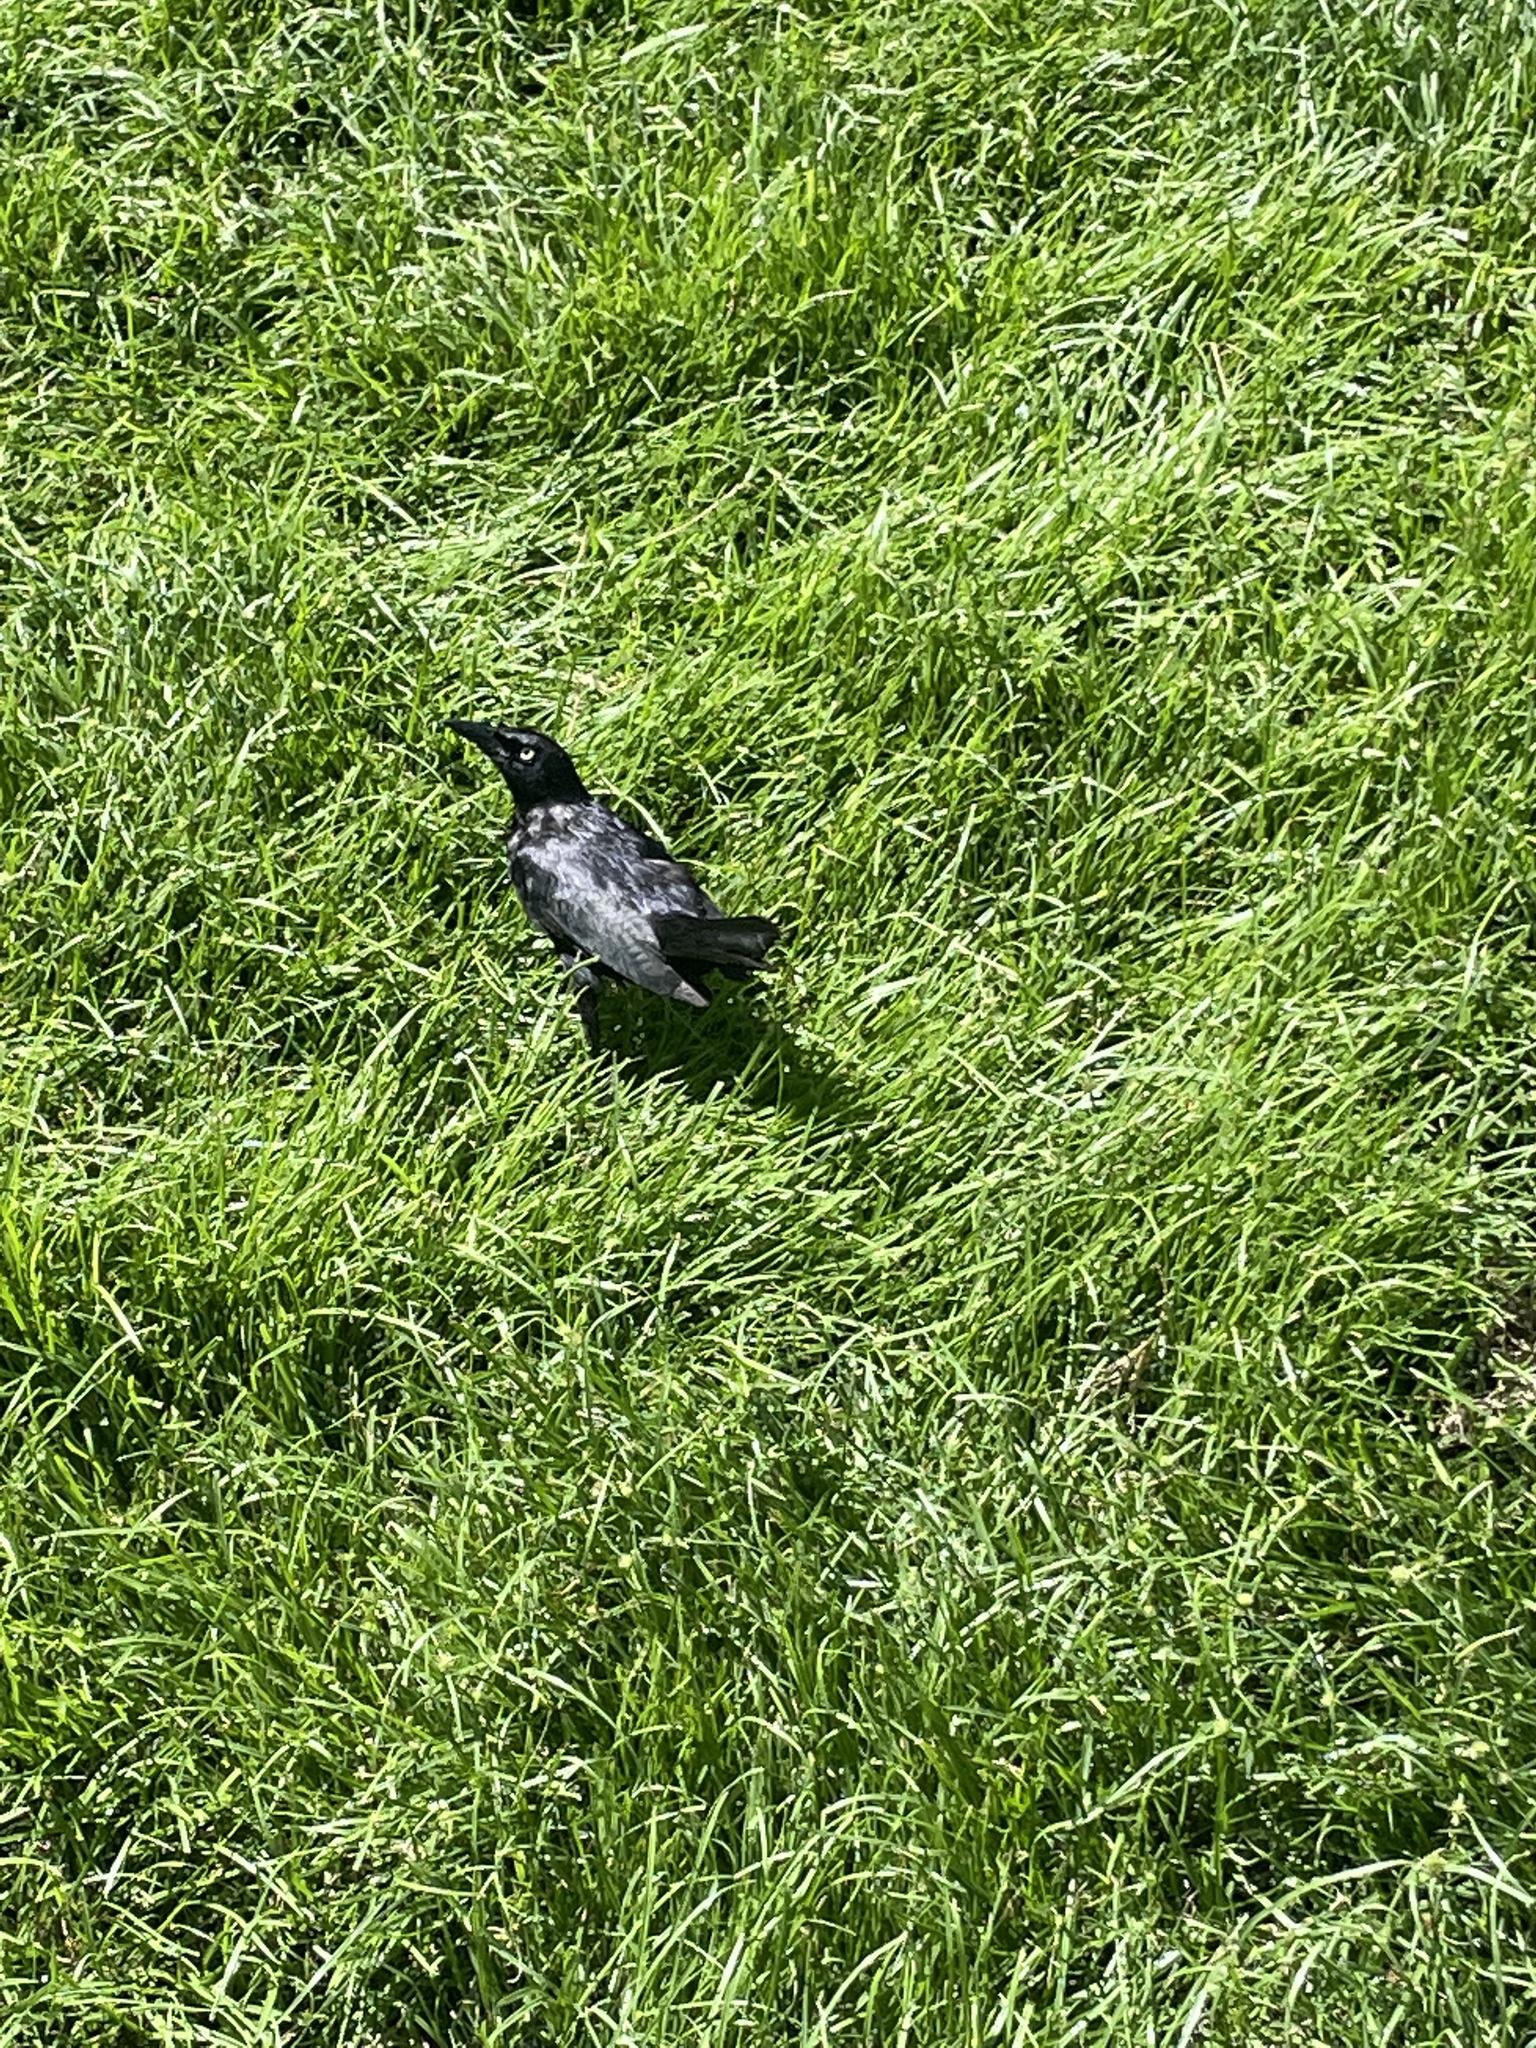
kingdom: Animalia
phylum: Chordata
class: Aves
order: Passeriformes
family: Icteridae
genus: Quiscalus
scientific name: Quiscalus lugubris
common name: Carib grackle
